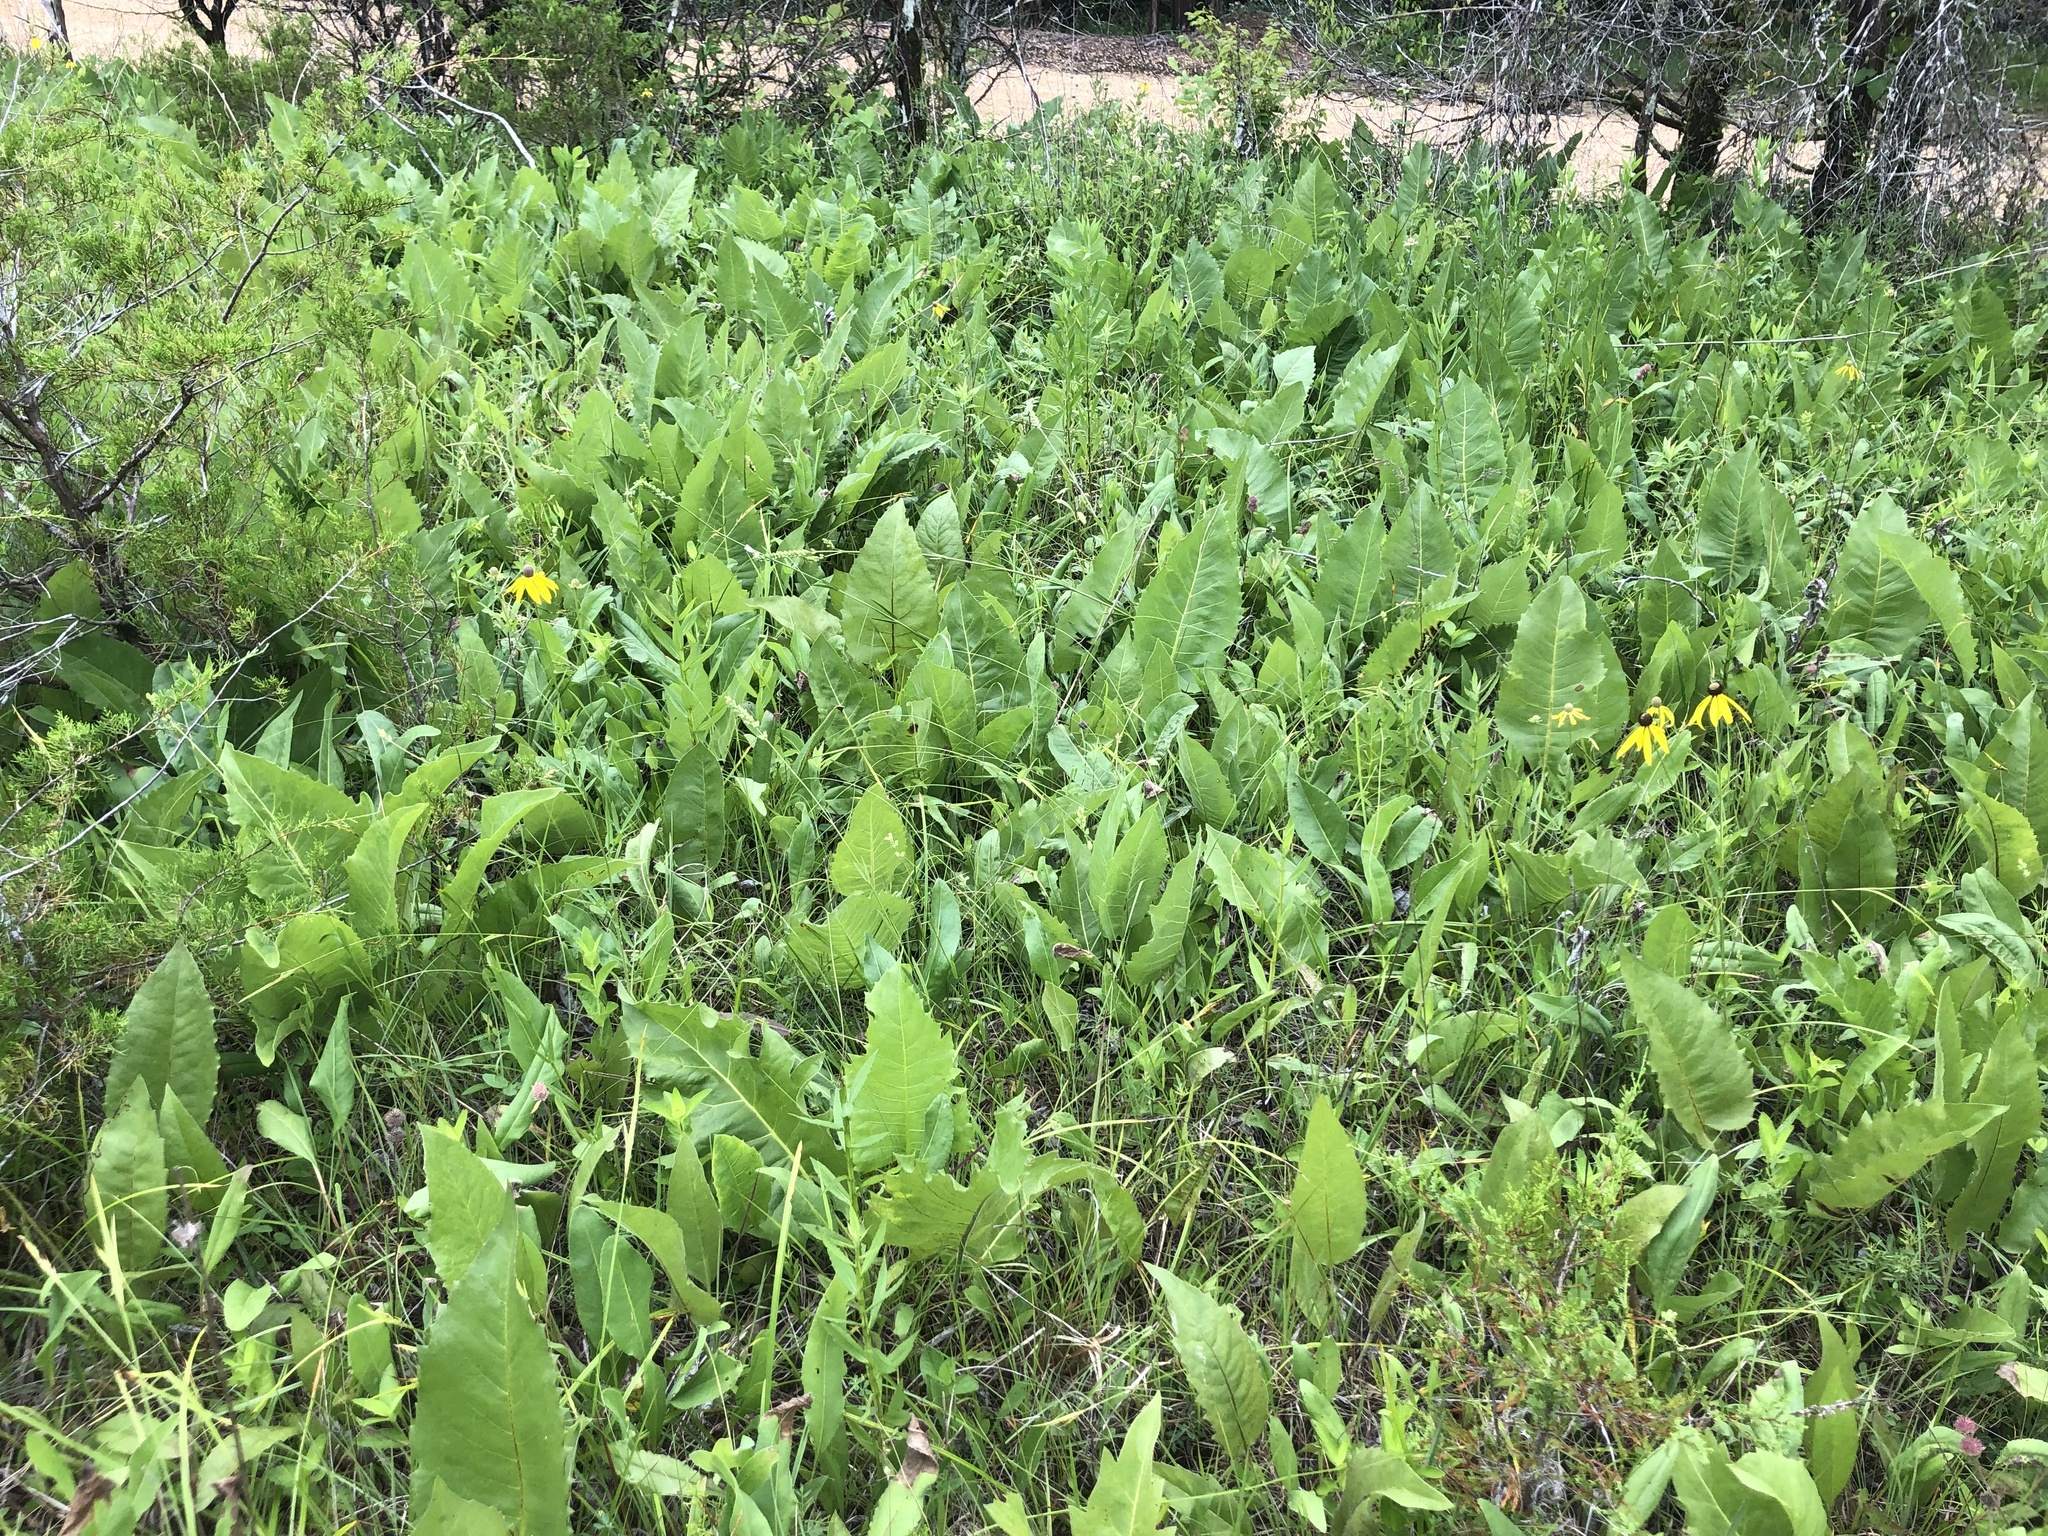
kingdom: Plantae
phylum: Tracheophyta
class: Magnoliopsida
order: Asterales
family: Asteraceae
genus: Silphium
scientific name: Silphium terebinthinaceum
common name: Basal-leaf rosinweed
